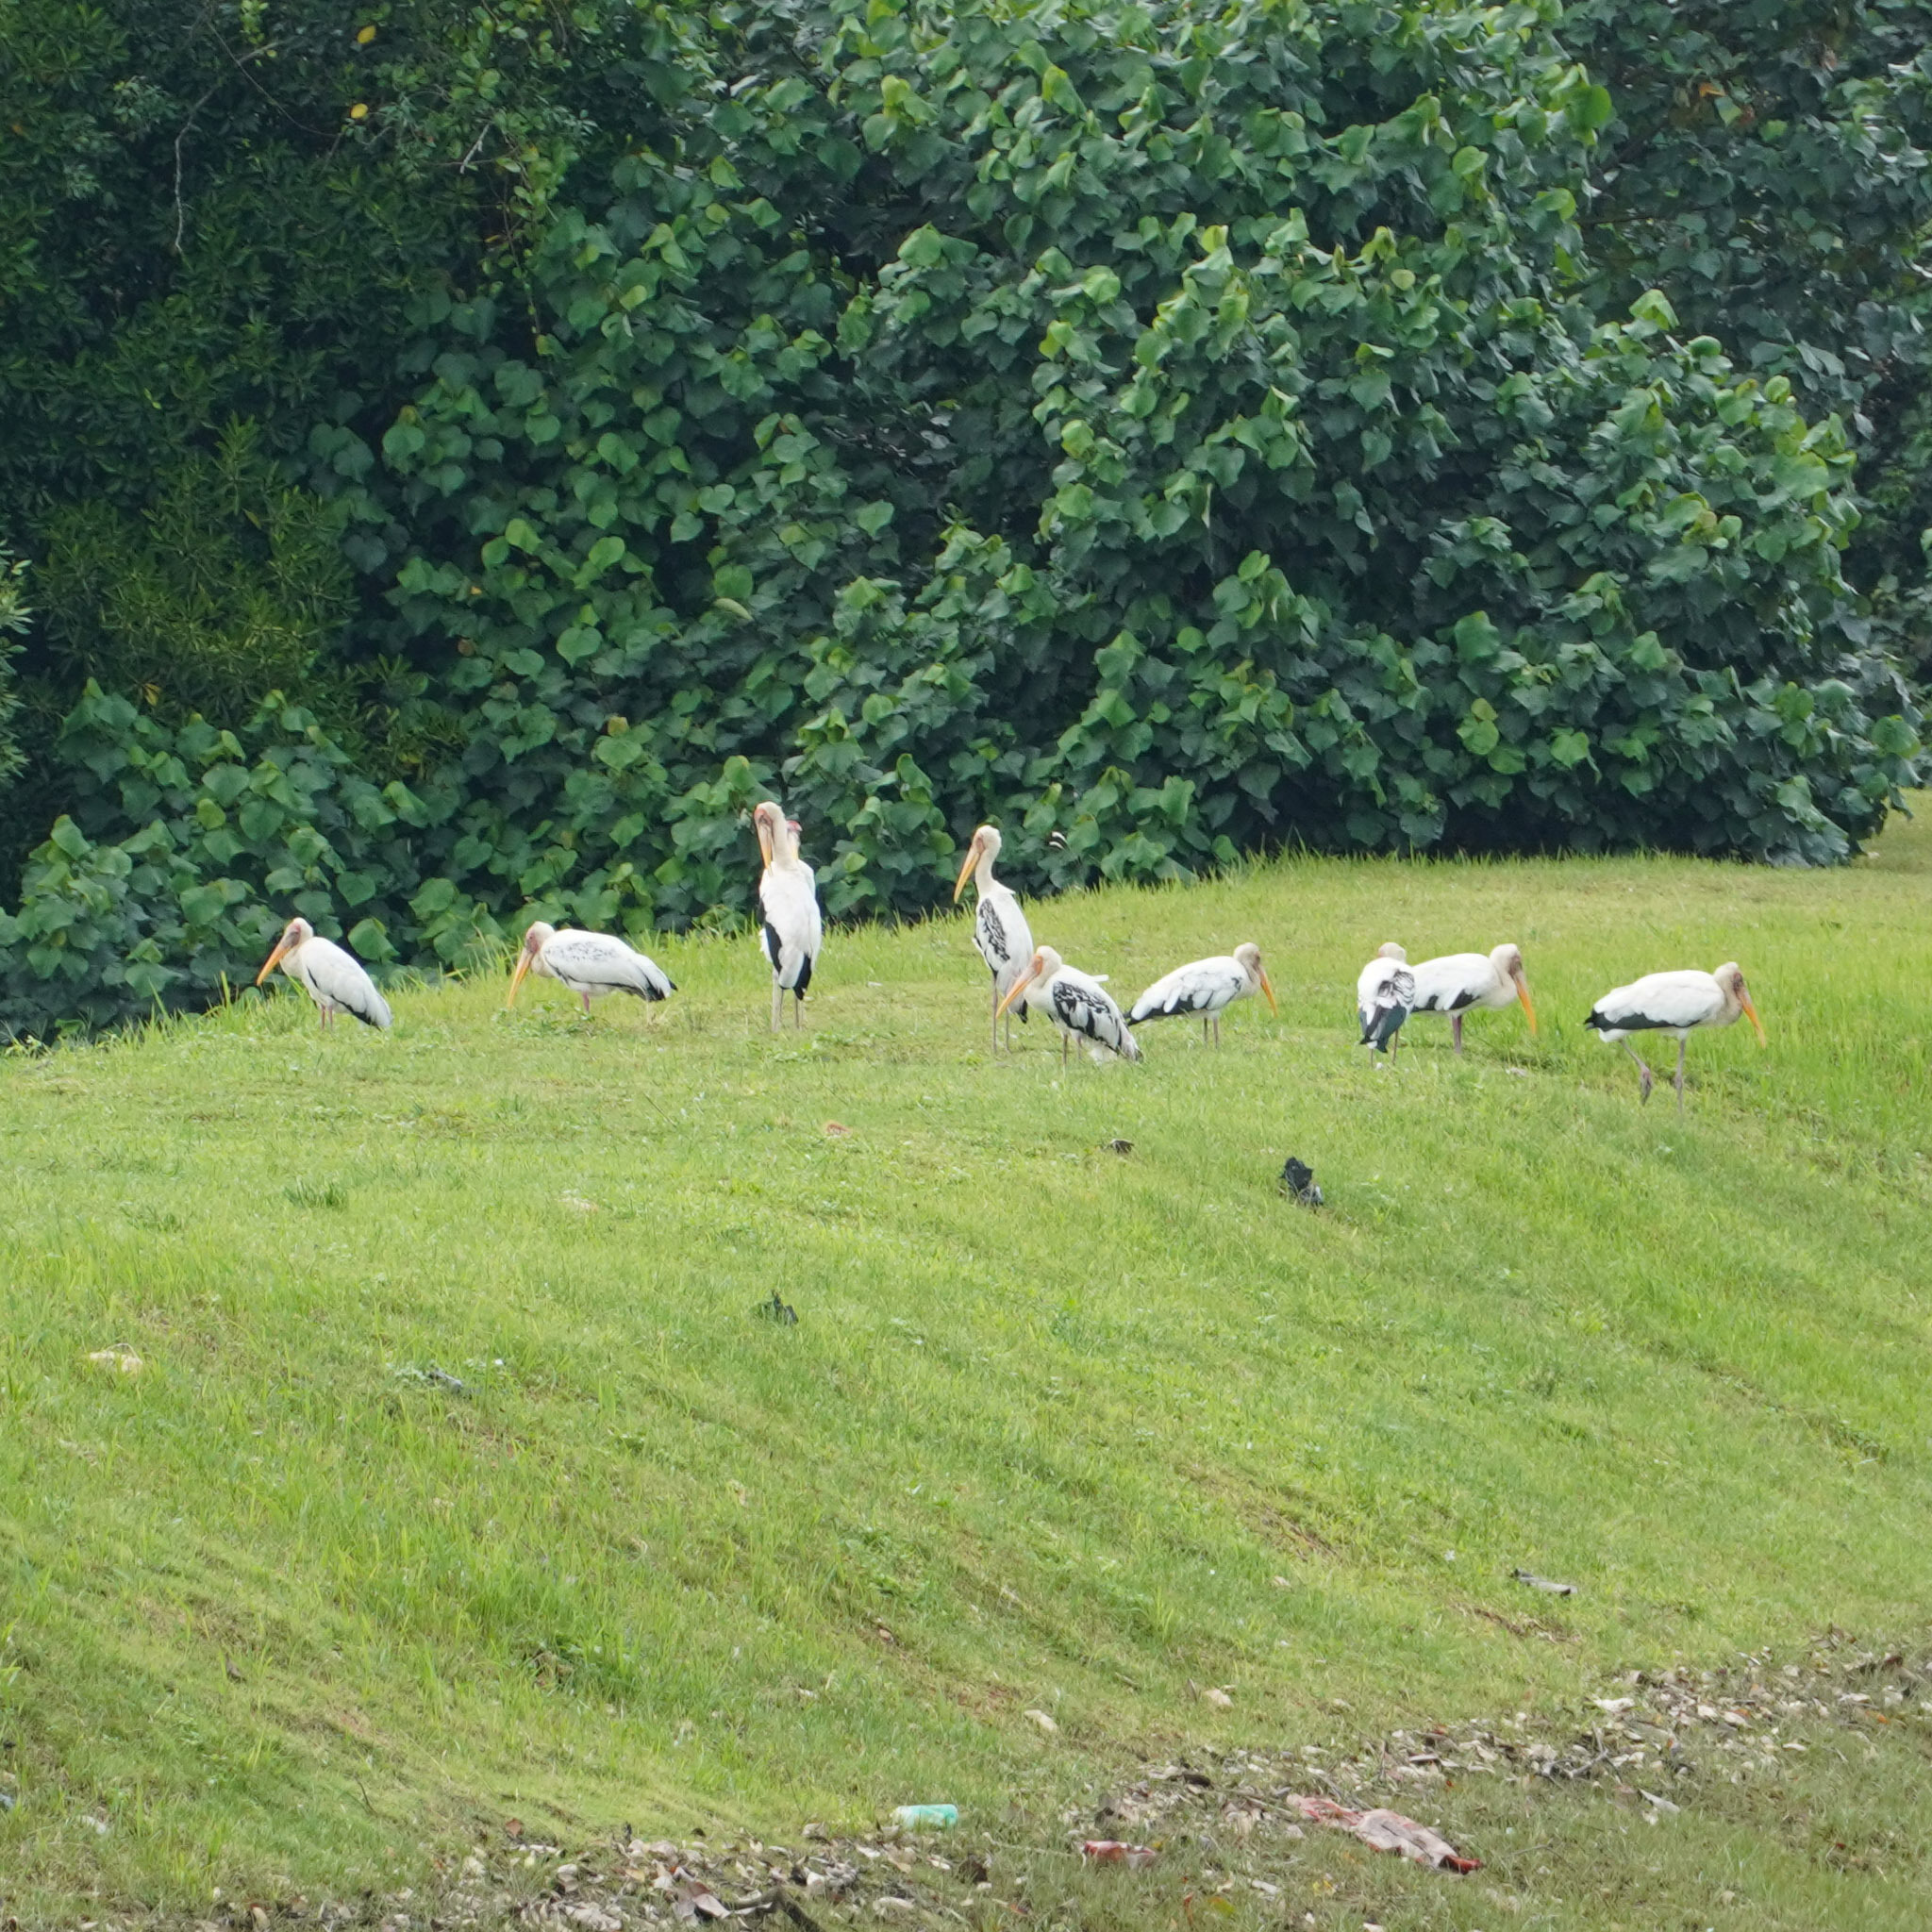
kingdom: Animalia
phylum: Chordata
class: Aves
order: Ciconiiformes
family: Ciconiidae
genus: Mycteria
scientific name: Mycteria
